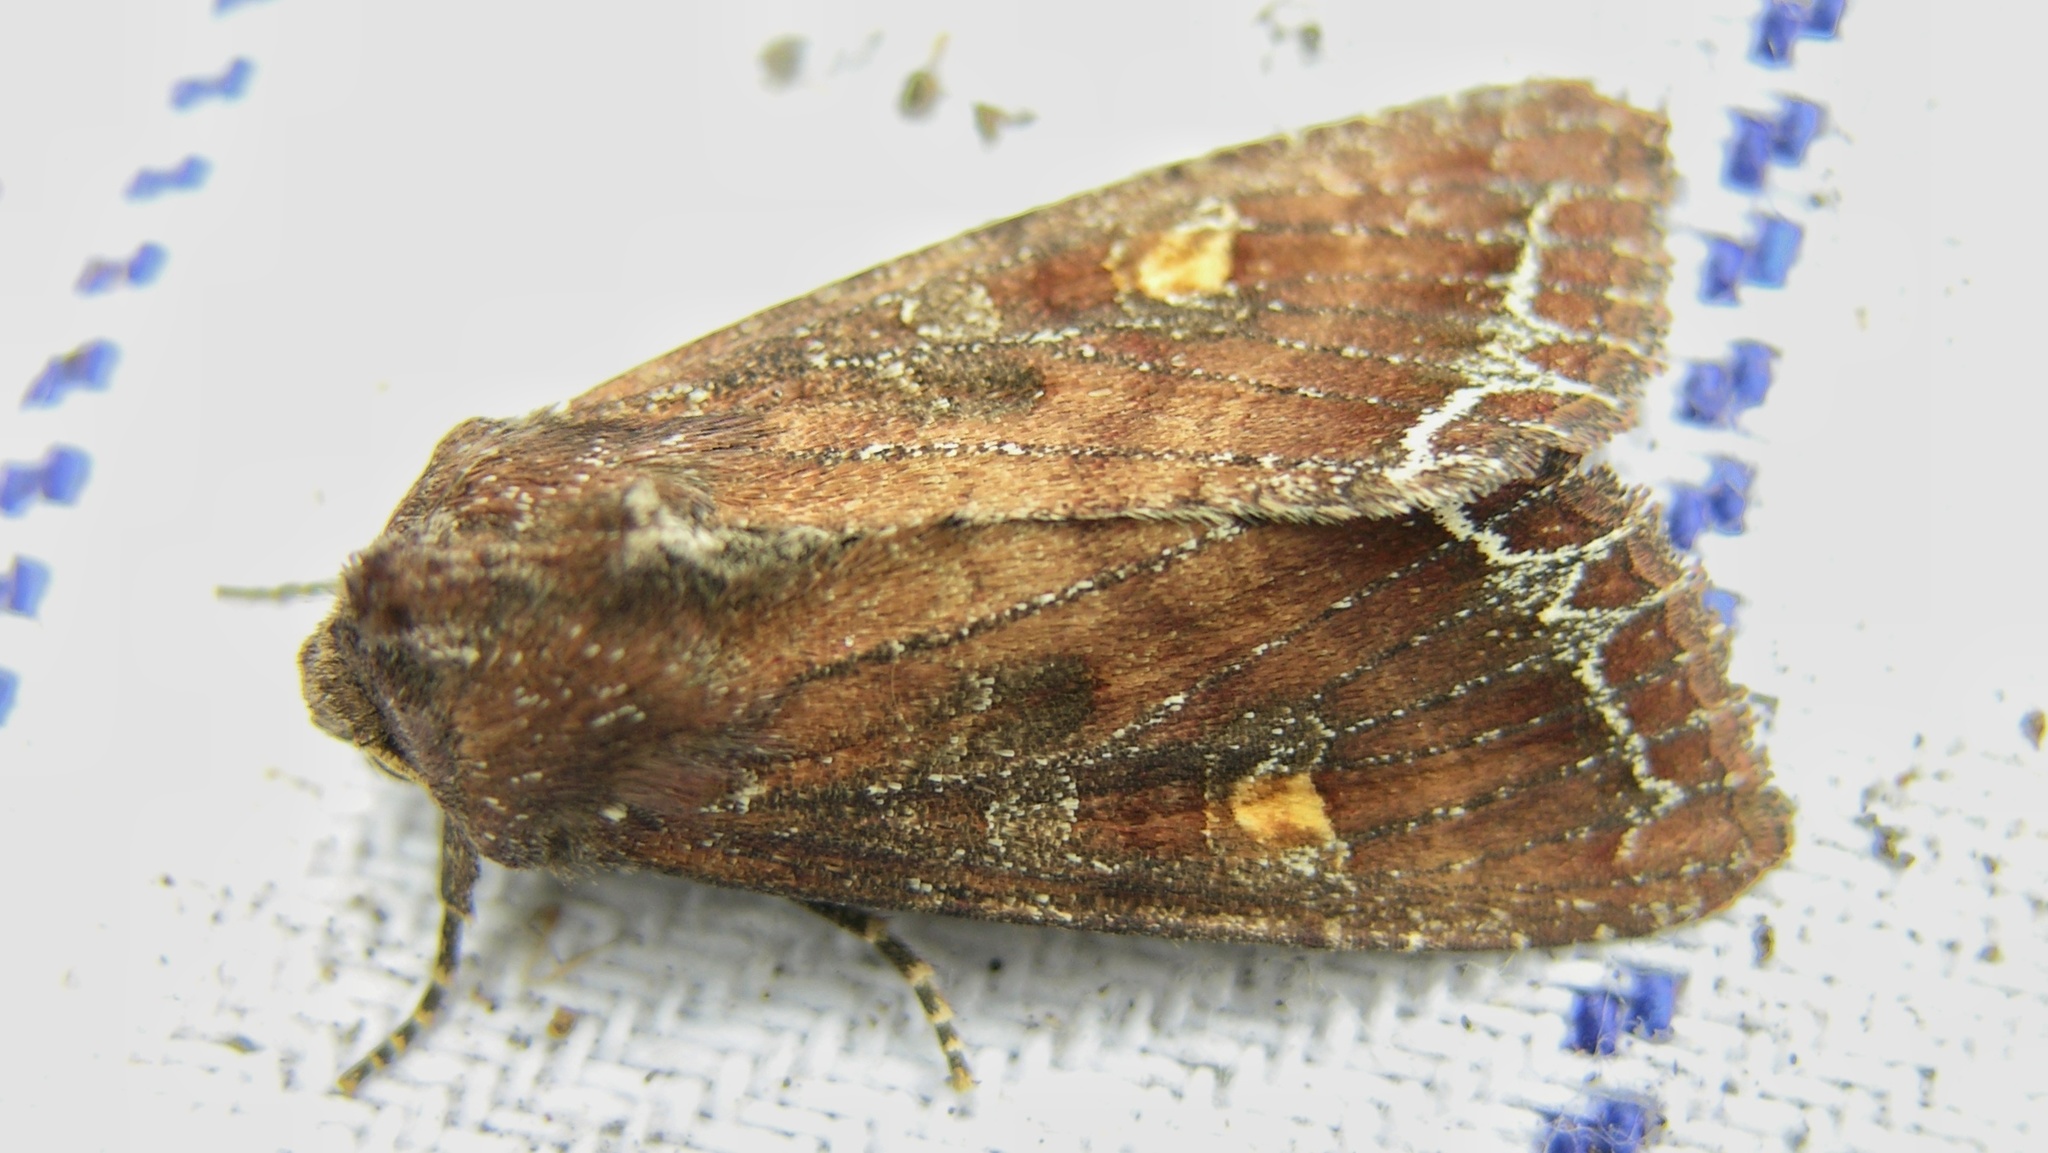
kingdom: Animalia
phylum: Arthropoda
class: Insecta
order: Lepidoptera
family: Noctuidae
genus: Lacanobia
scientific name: Lacanobia oleracea
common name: Bright-line brown-eye
